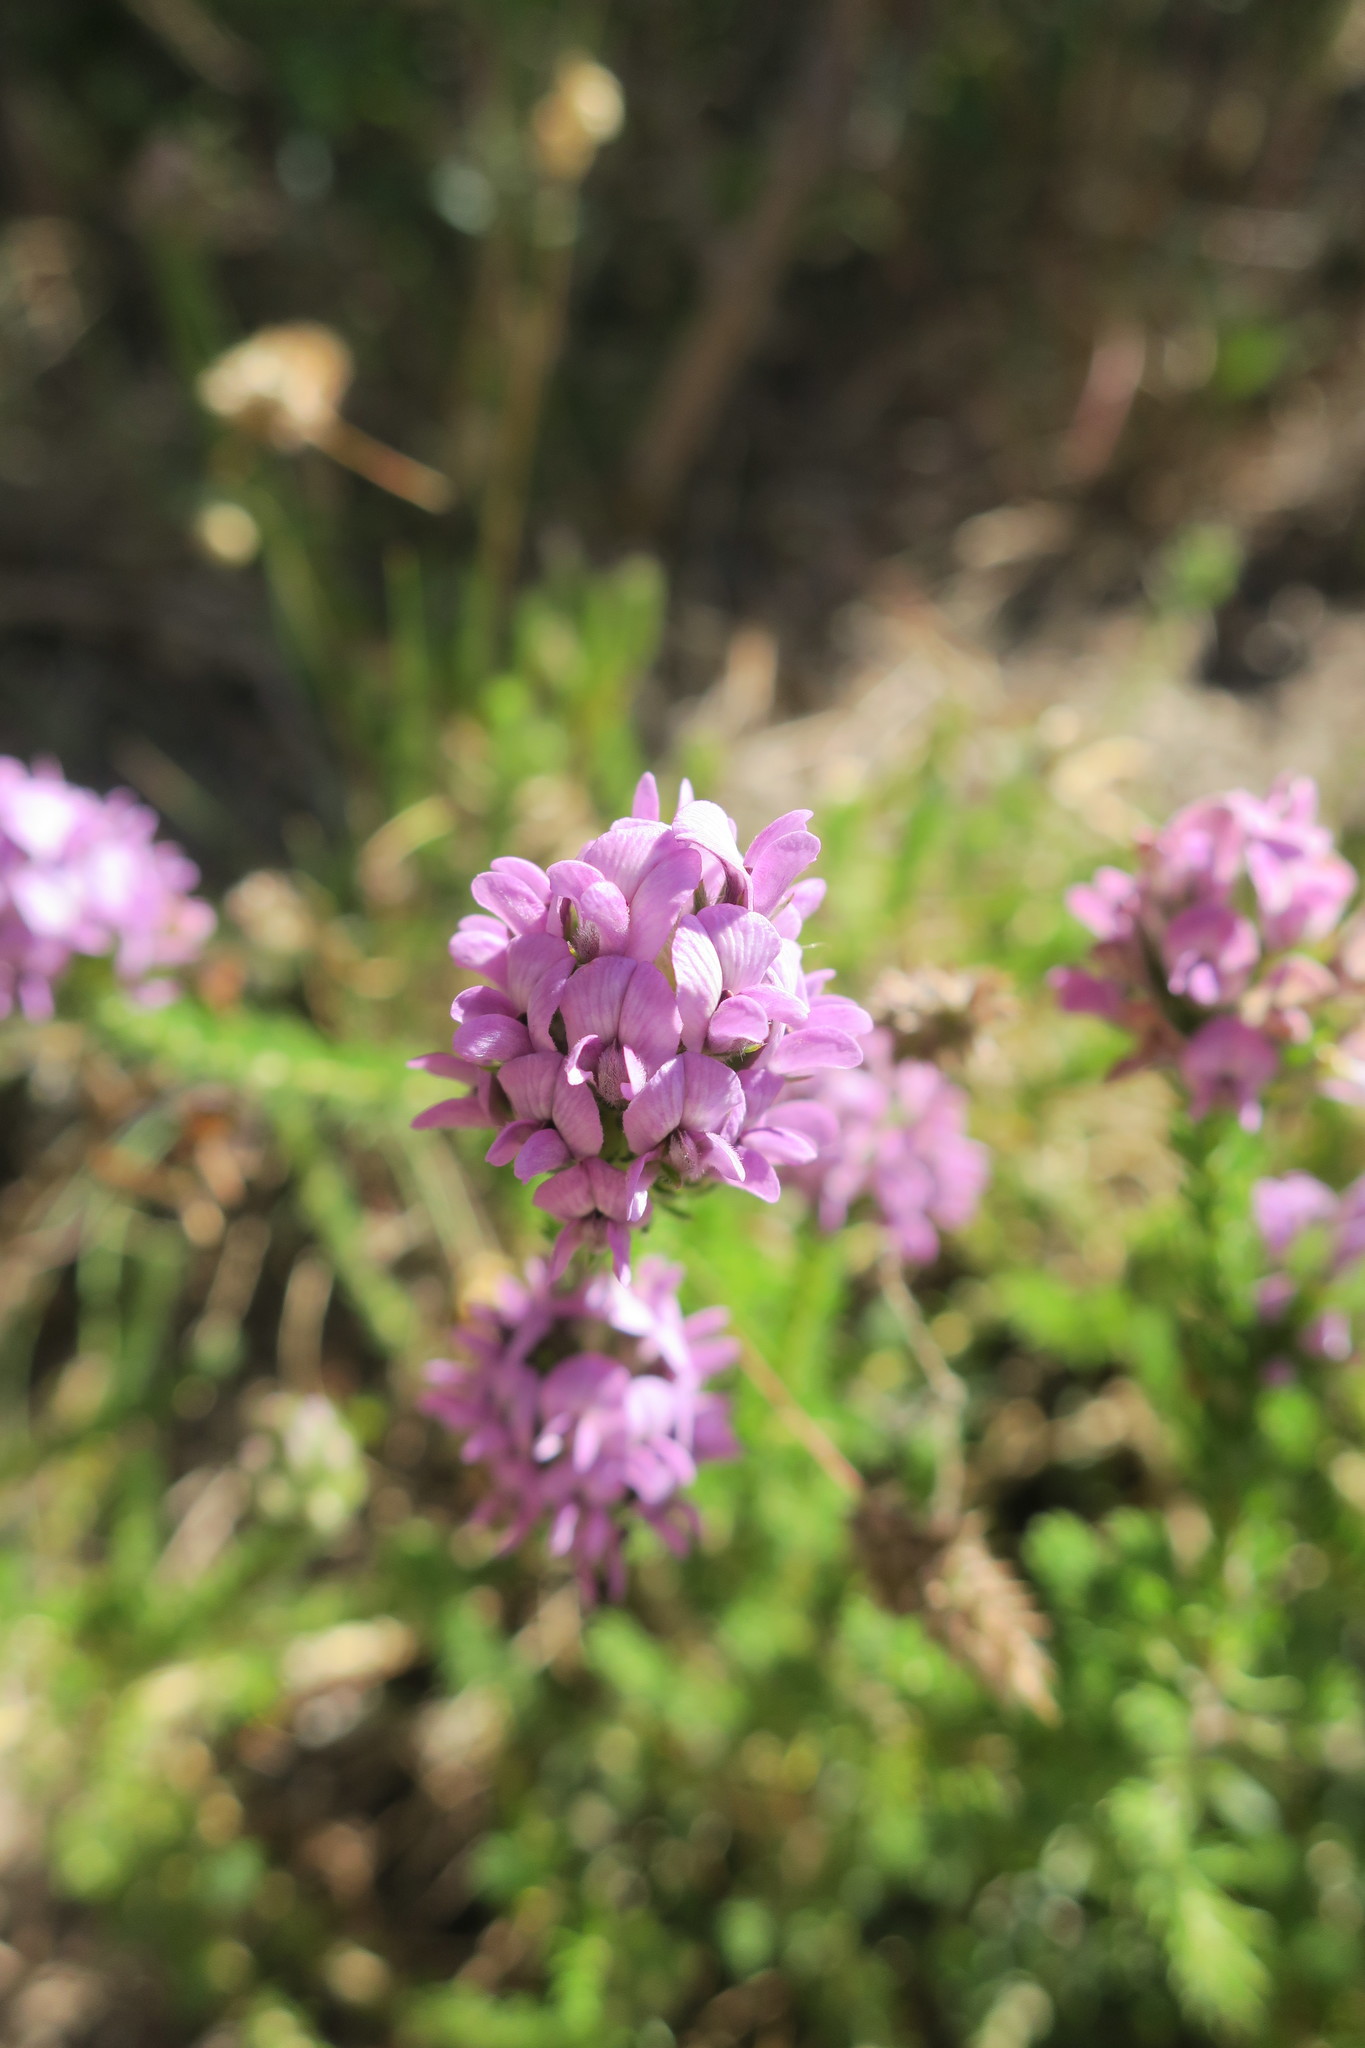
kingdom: Plantae
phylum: Tracheophyta
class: Magnoliopsida
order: Fabales
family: Fabaceae
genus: Aspalathus
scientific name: Aspalathus cephalotes
